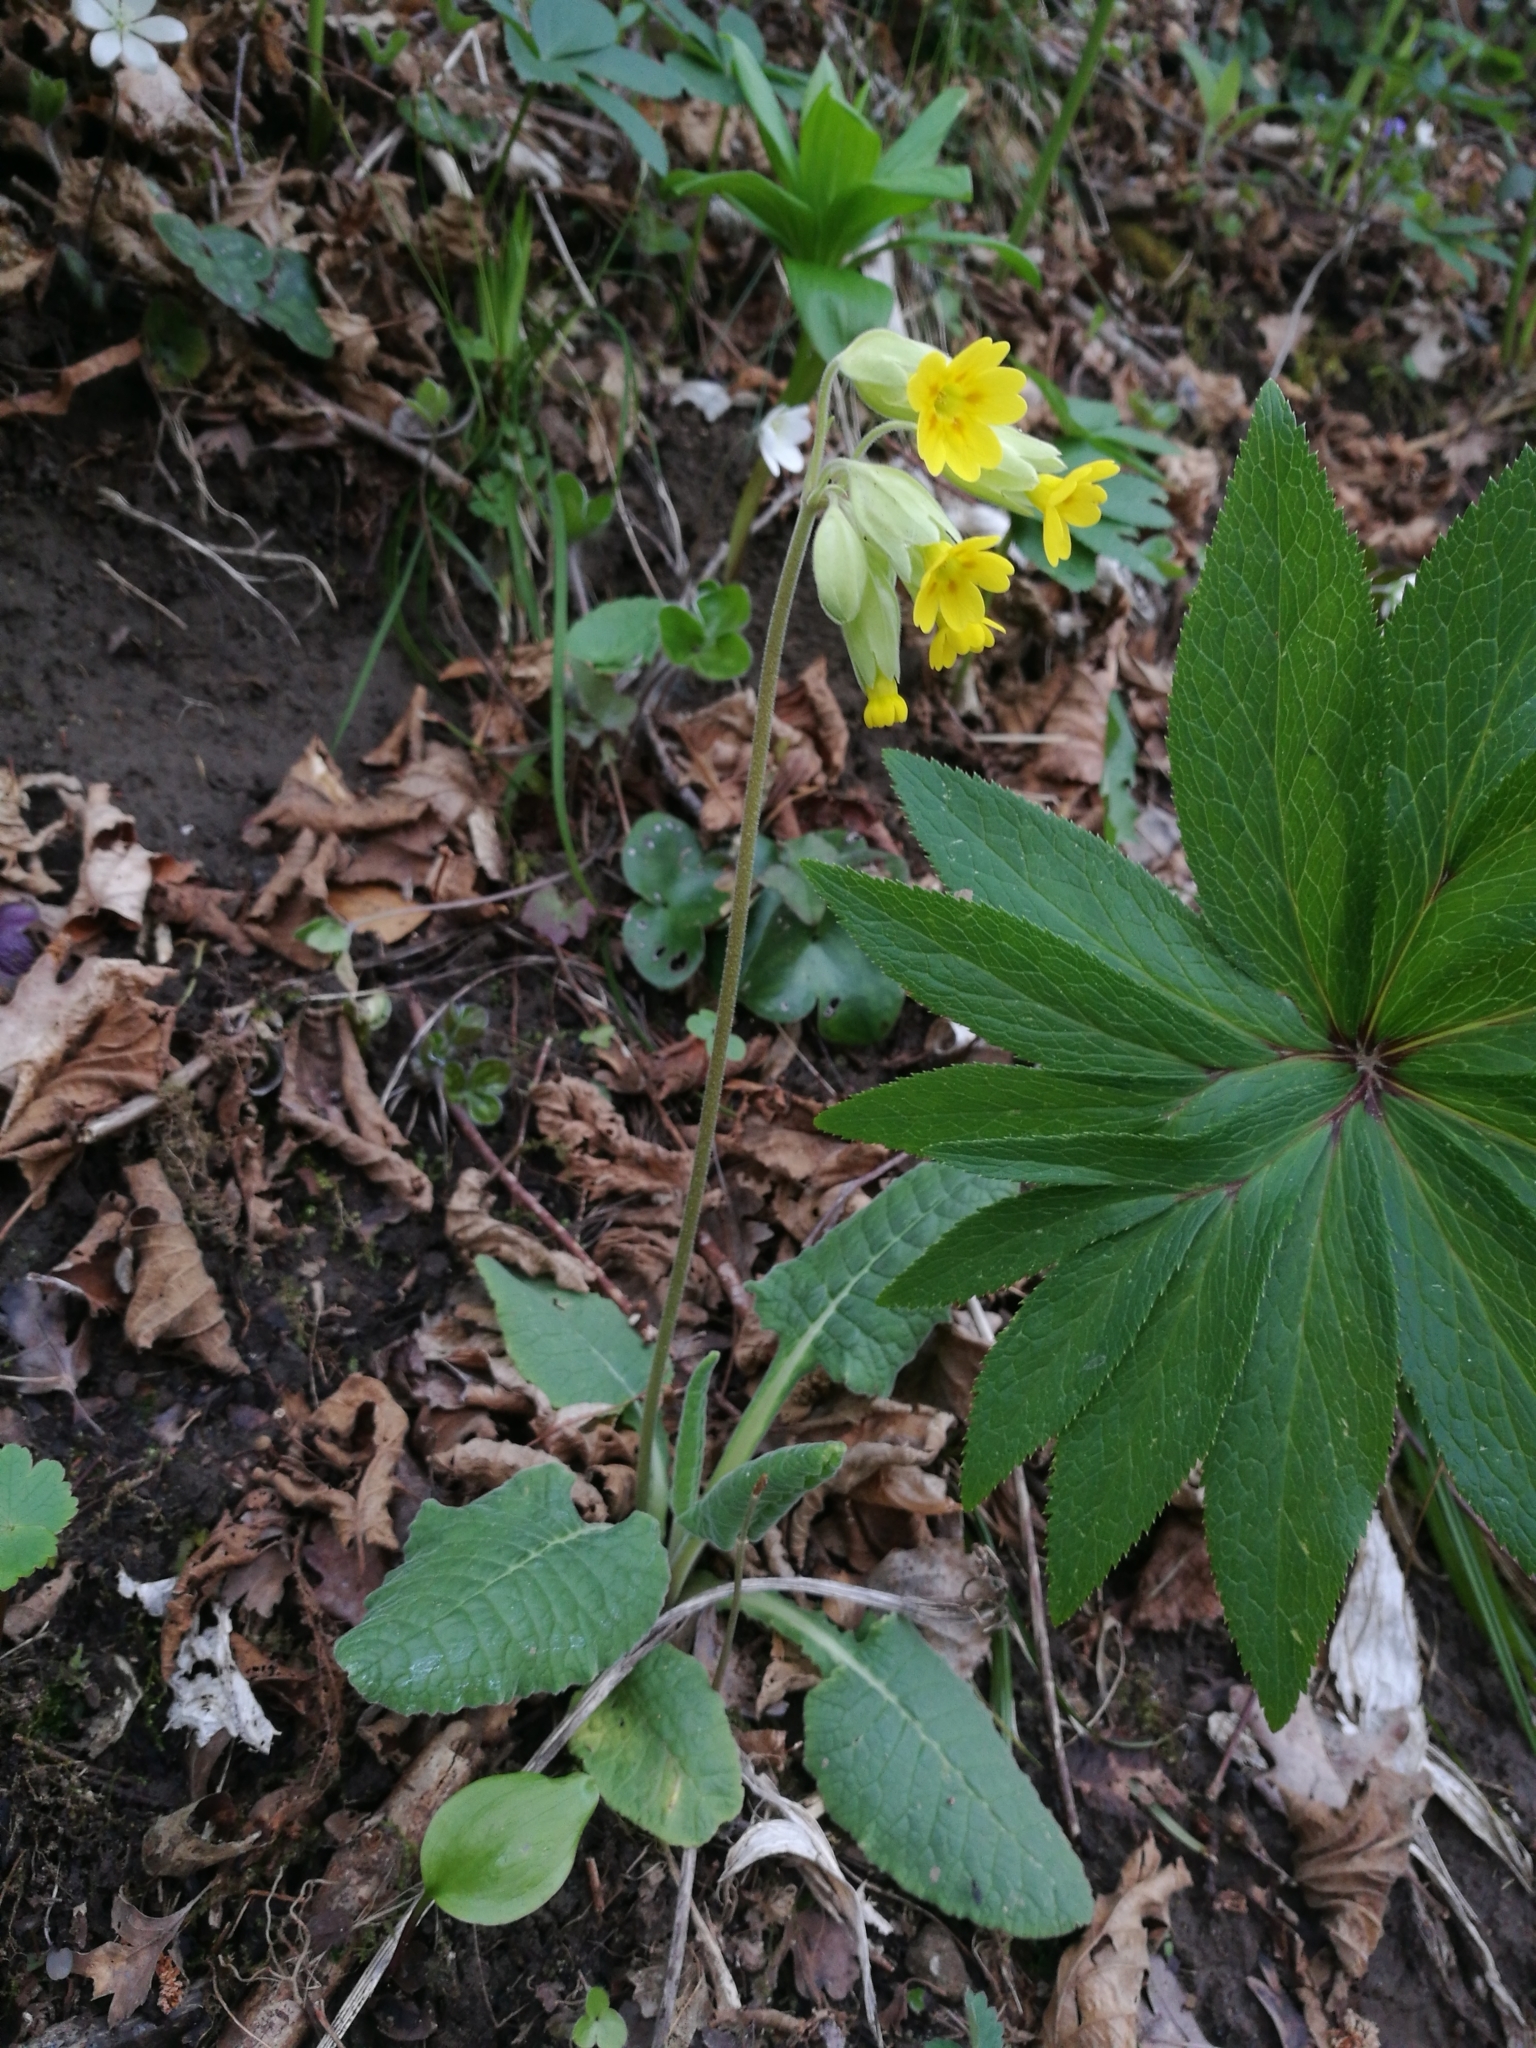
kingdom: Plantae
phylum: Tracheophyta
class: Magnoliopsida
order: Ericales
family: Primulaceae
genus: Primula
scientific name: Primula veris
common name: Cowslip
